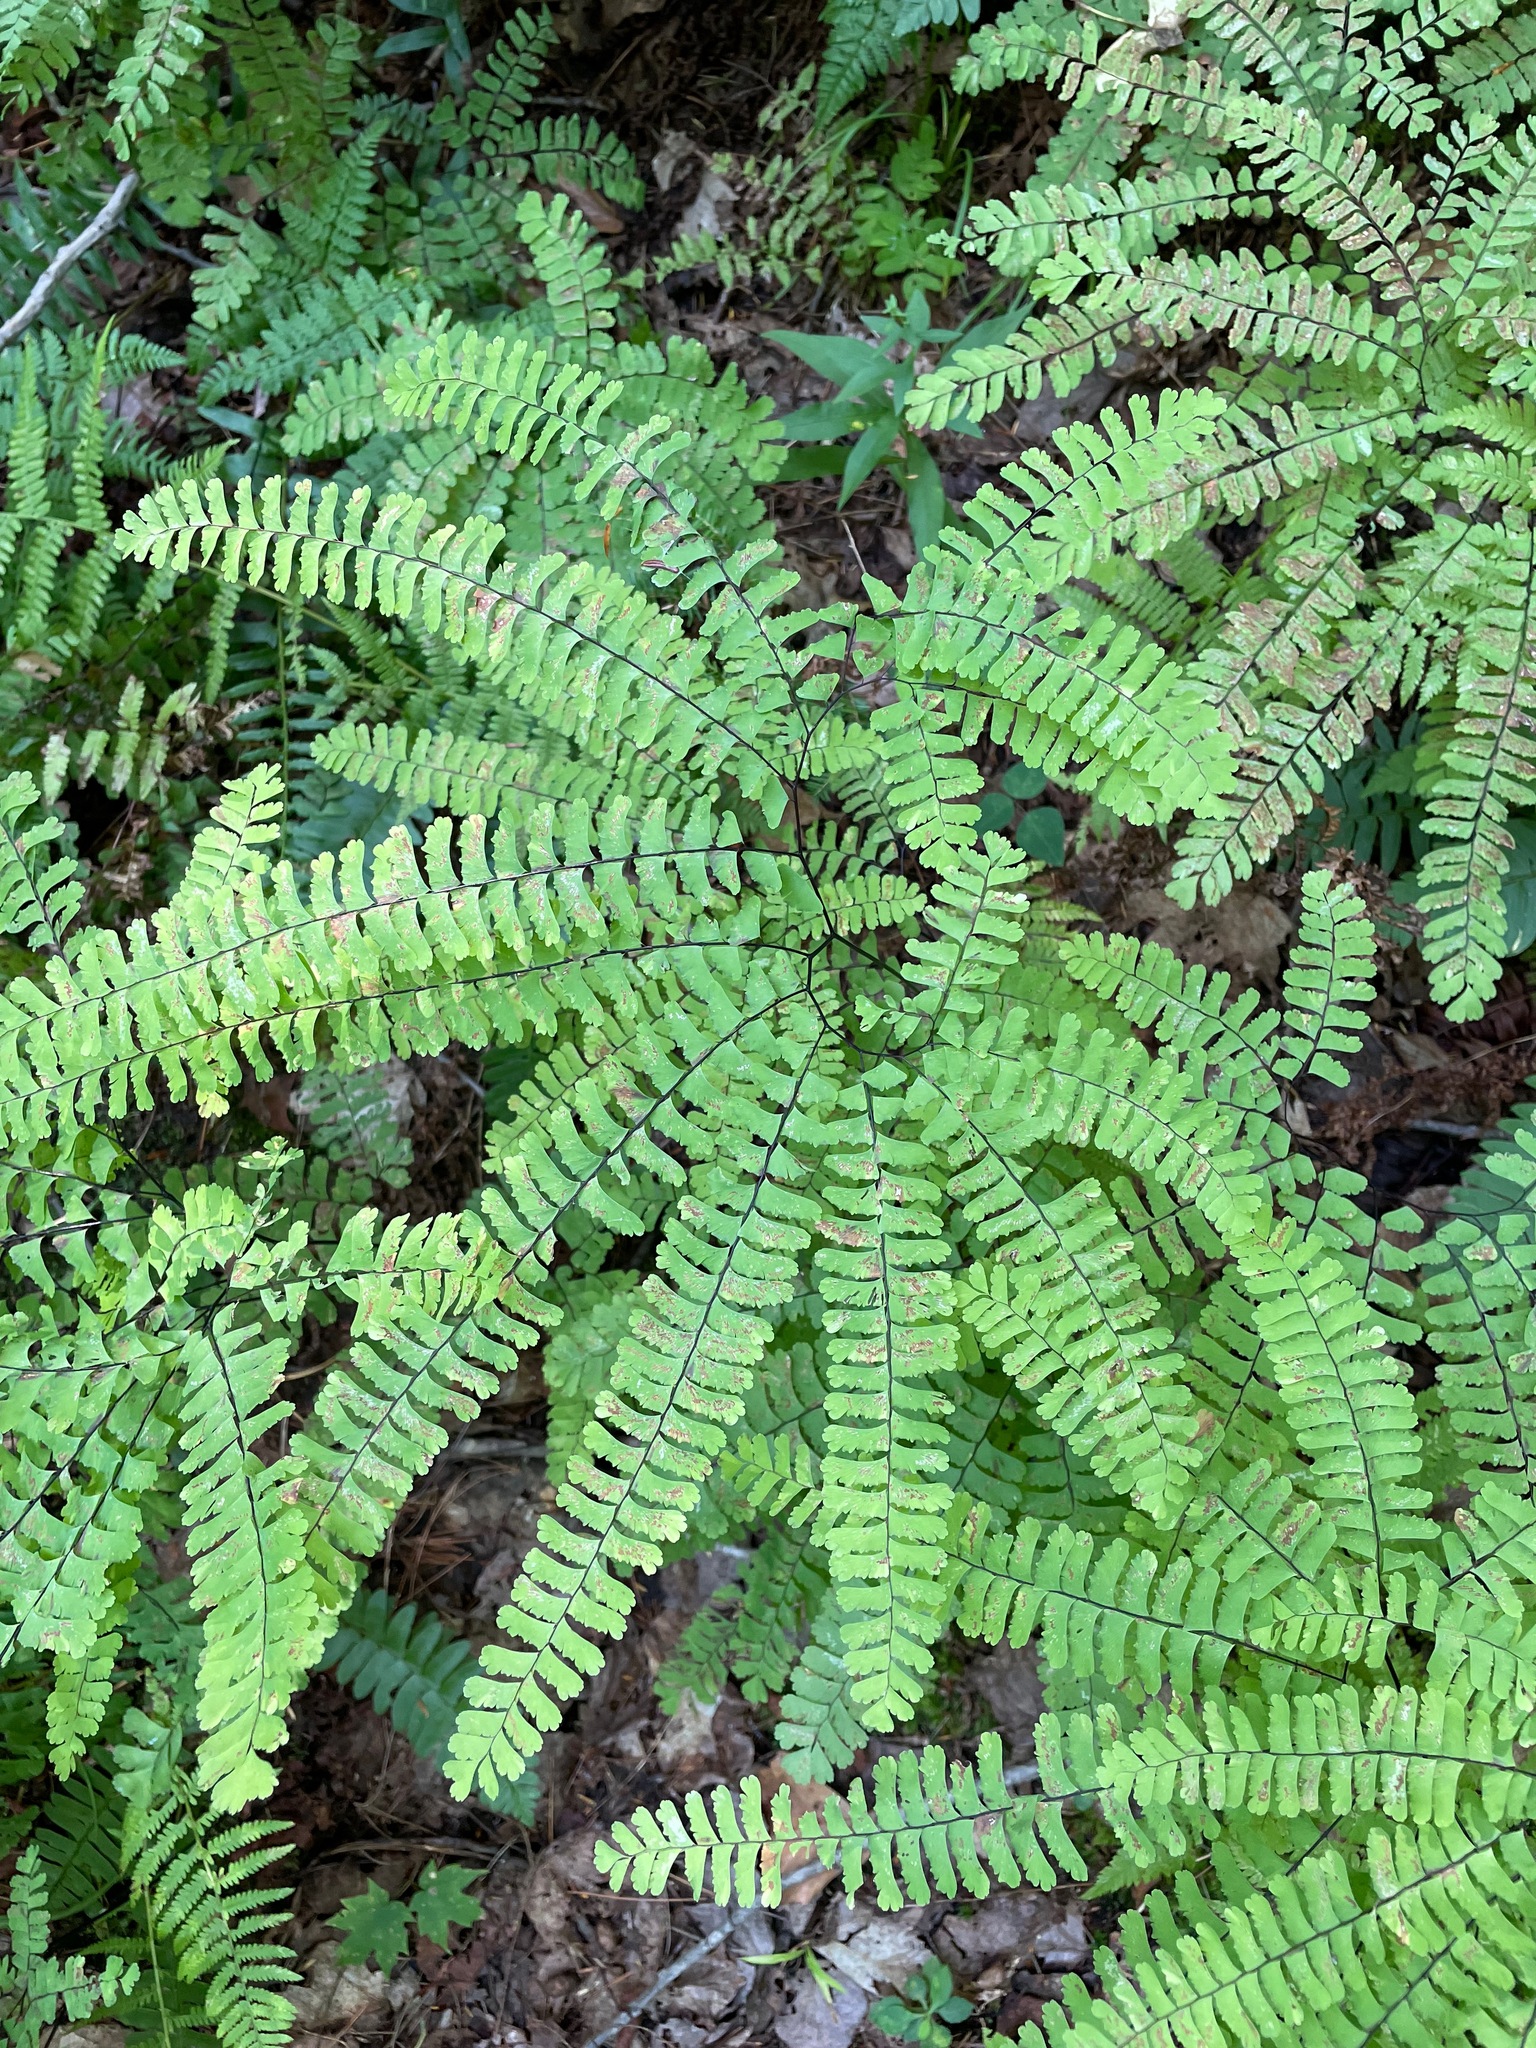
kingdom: Plantae
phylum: Tracheophyta
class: Polypodiopsida
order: Polypodiales
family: Pteridaceae
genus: Adiantum
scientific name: Adiantum pedatum
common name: Five-finger fern
